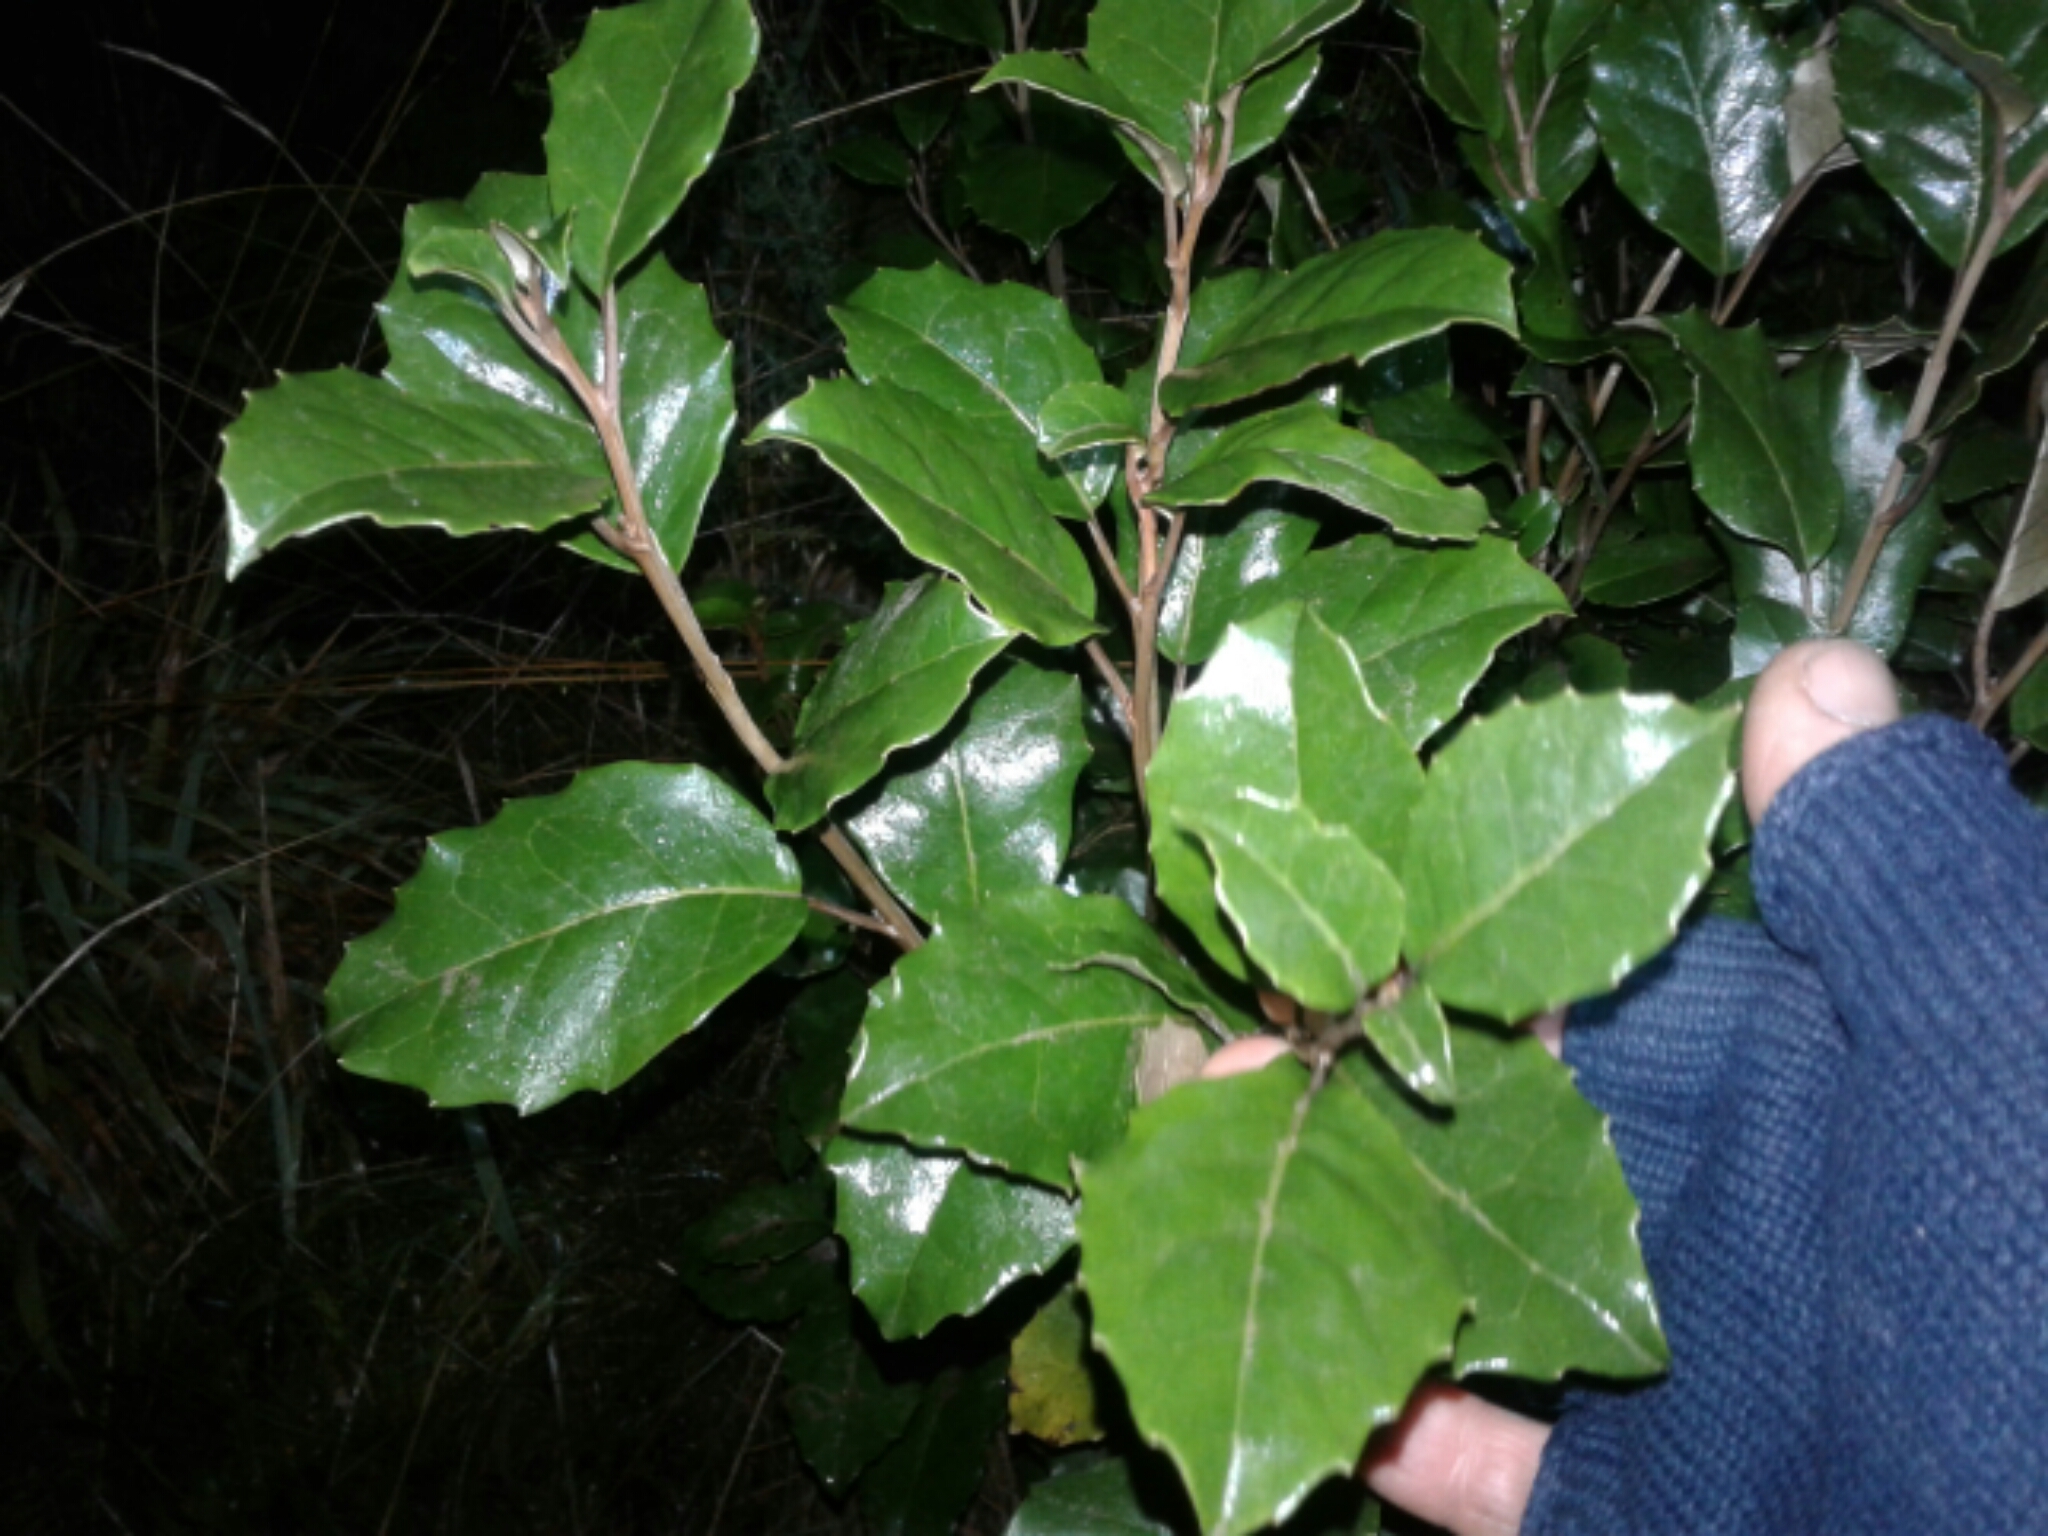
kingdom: Plantae
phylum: Tracheophyta
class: Magnoliopsida
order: Asterales
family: Asteraceae
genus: Olearia
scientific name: Olearia arborescens
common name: Glossy tree daisy
